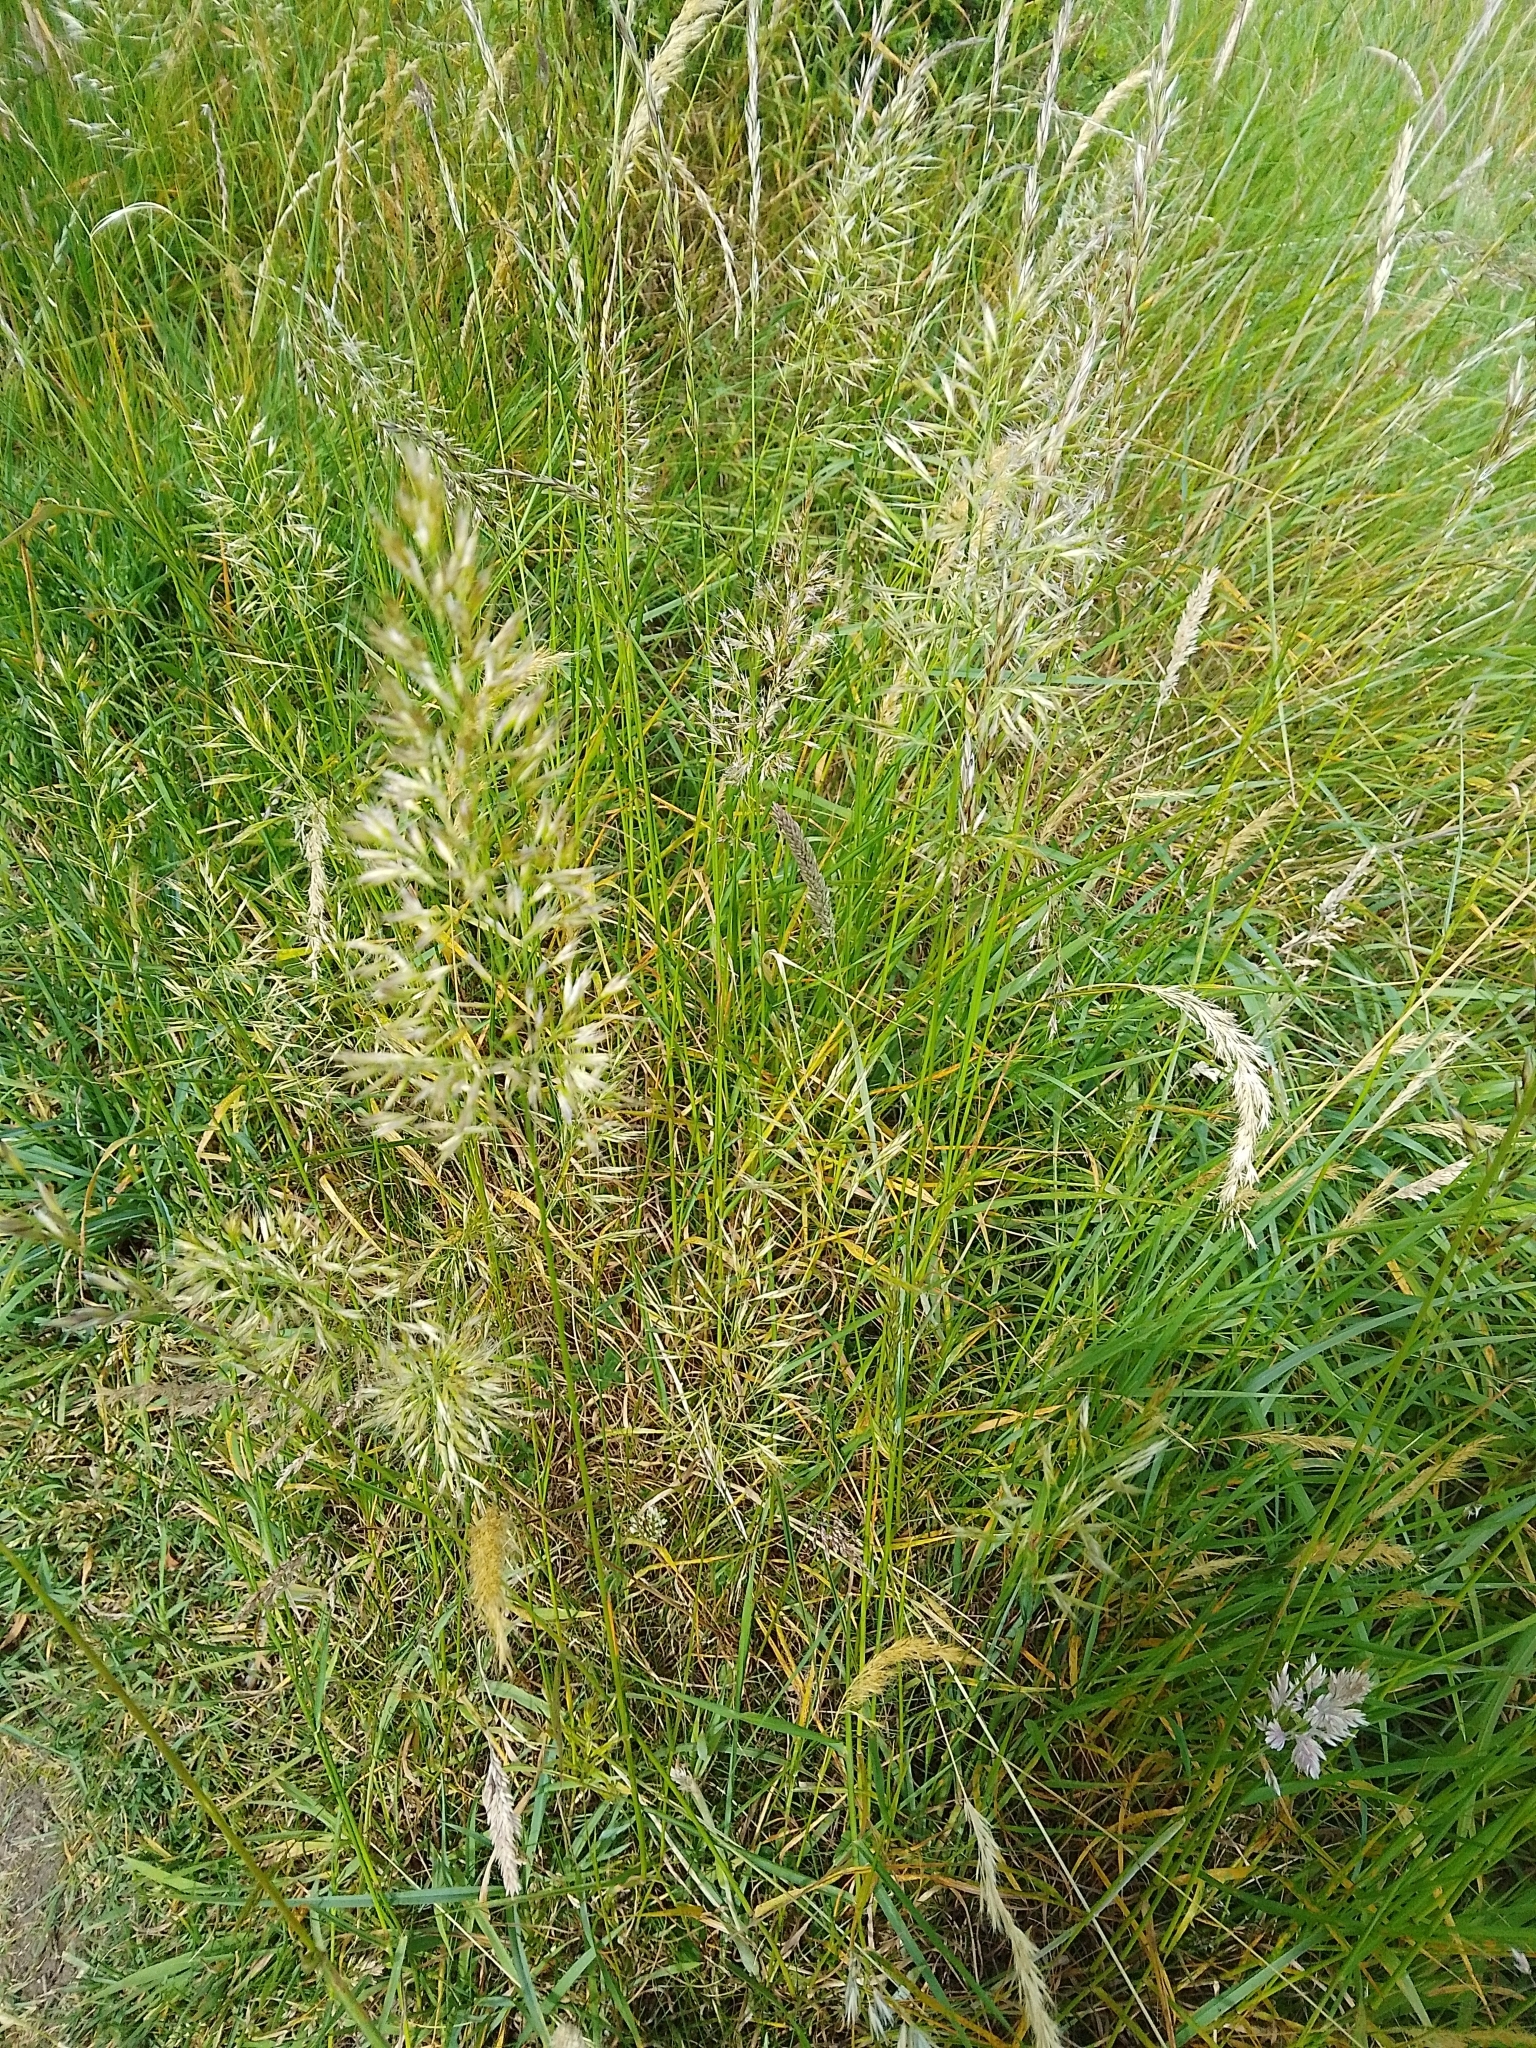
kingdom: Plantae
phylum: Tracheophyta
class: Liliopsida
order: Poales
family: Poaceae
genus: Trisetum
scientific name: Trisetum flavescens
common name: Yellow oat-grass
